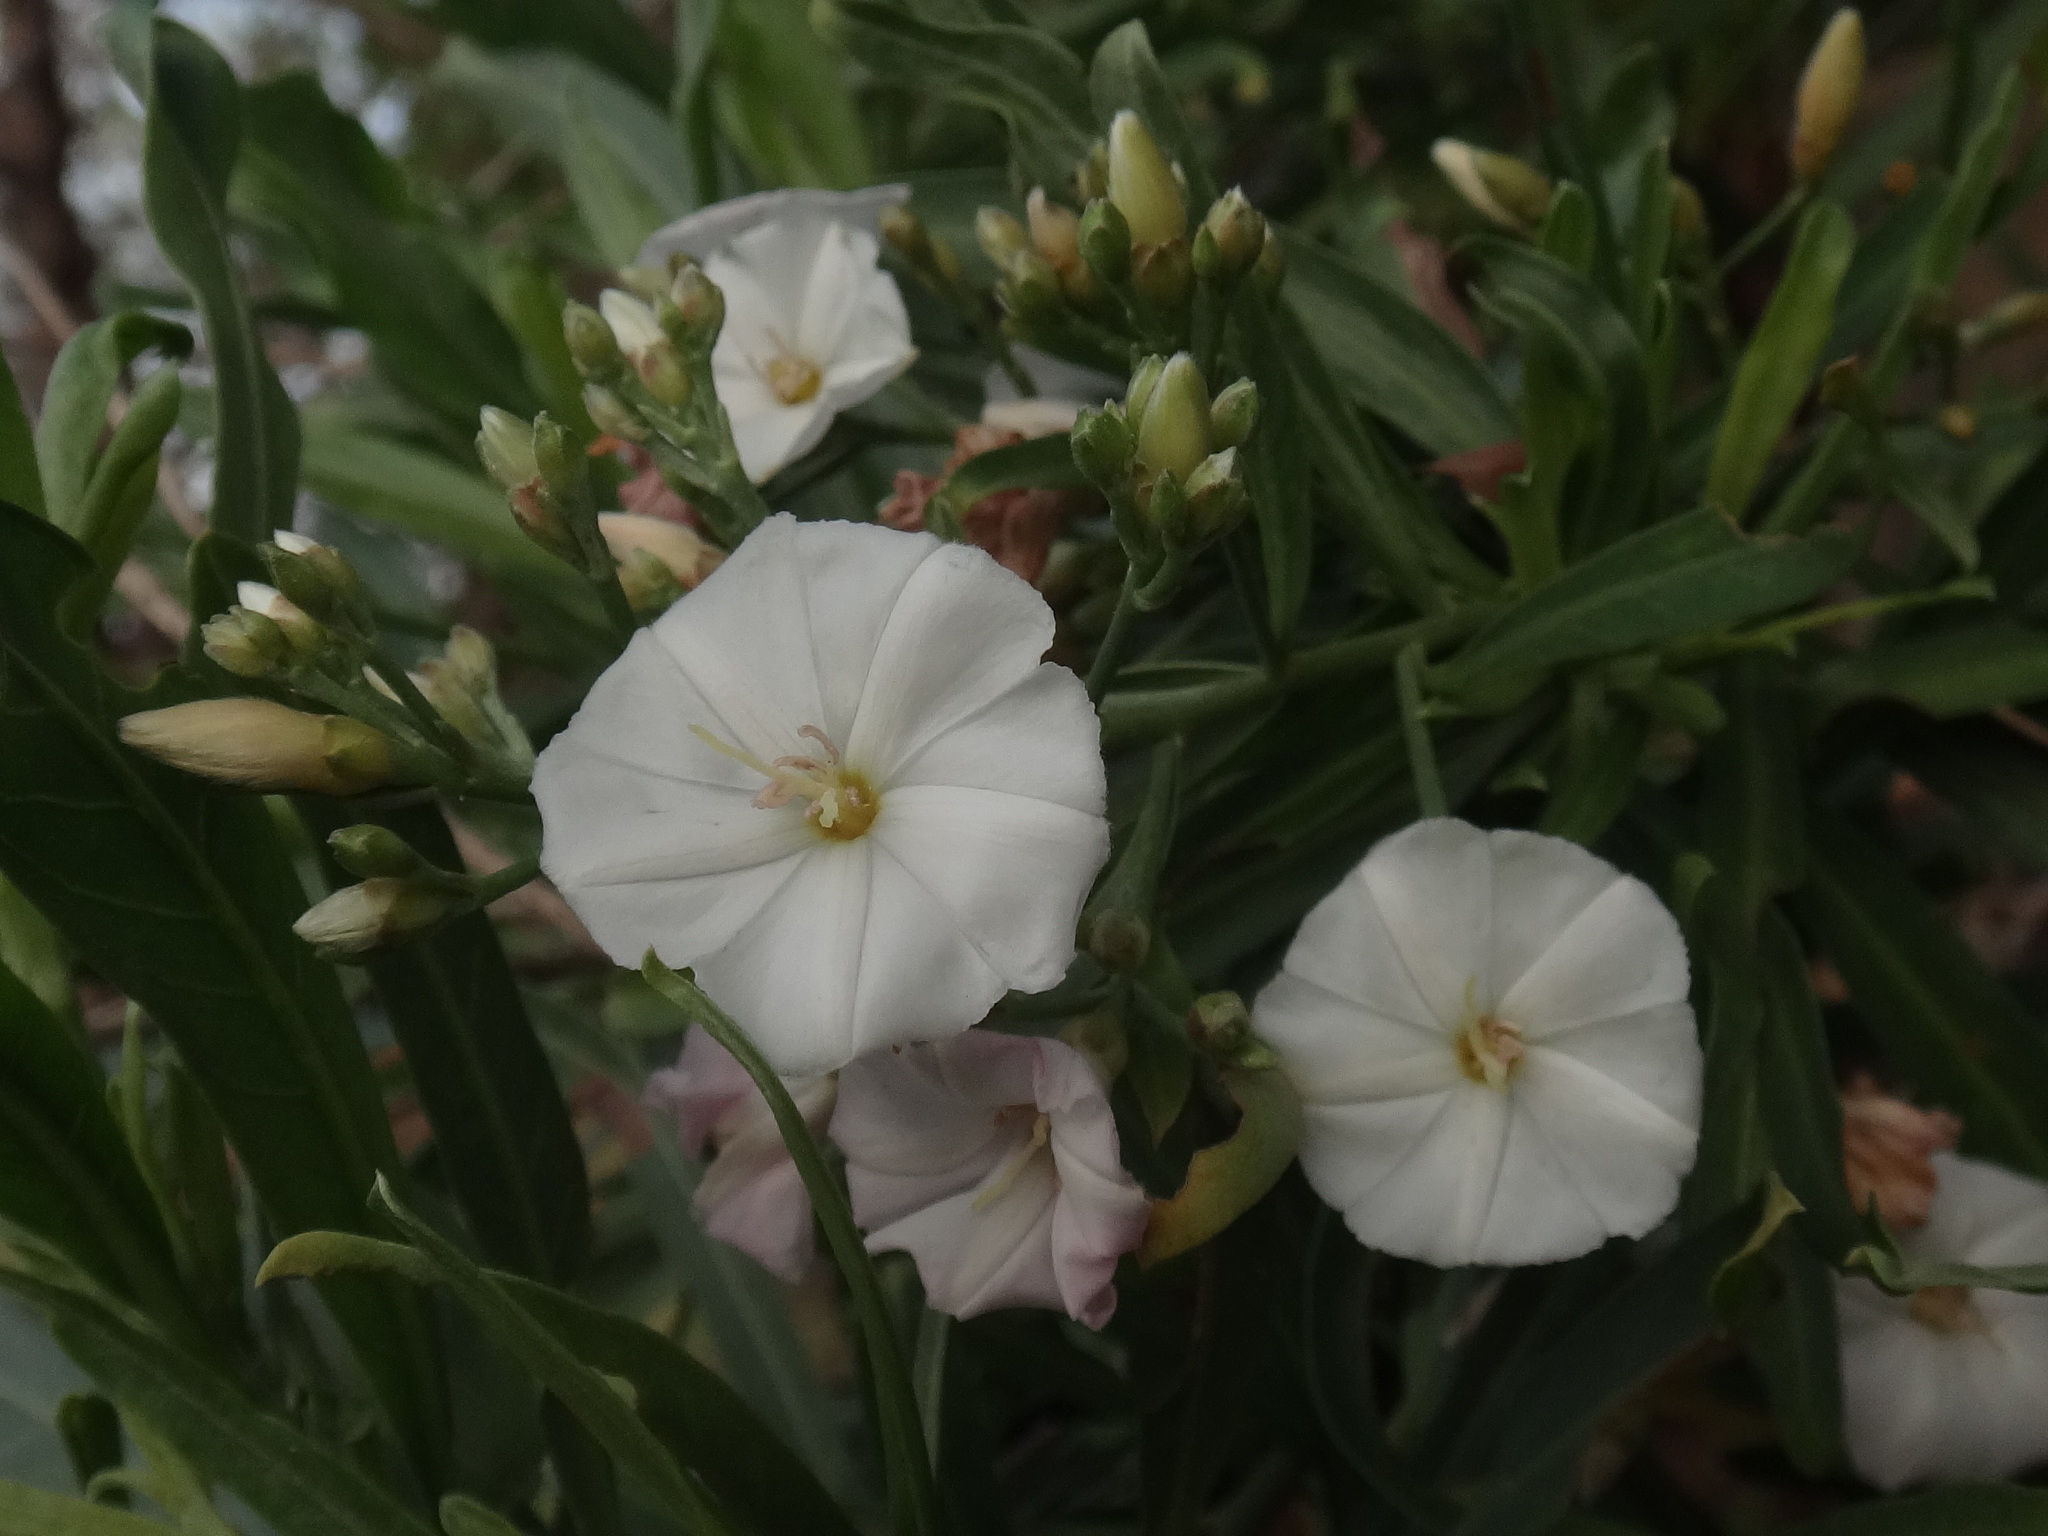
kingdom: Plantae
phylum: Tracheophyta
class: Magnoliopsida
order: Solanales
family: Convolvulaceae
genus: Convolvulus
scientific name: Convolvulus floridus
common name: Guadil
